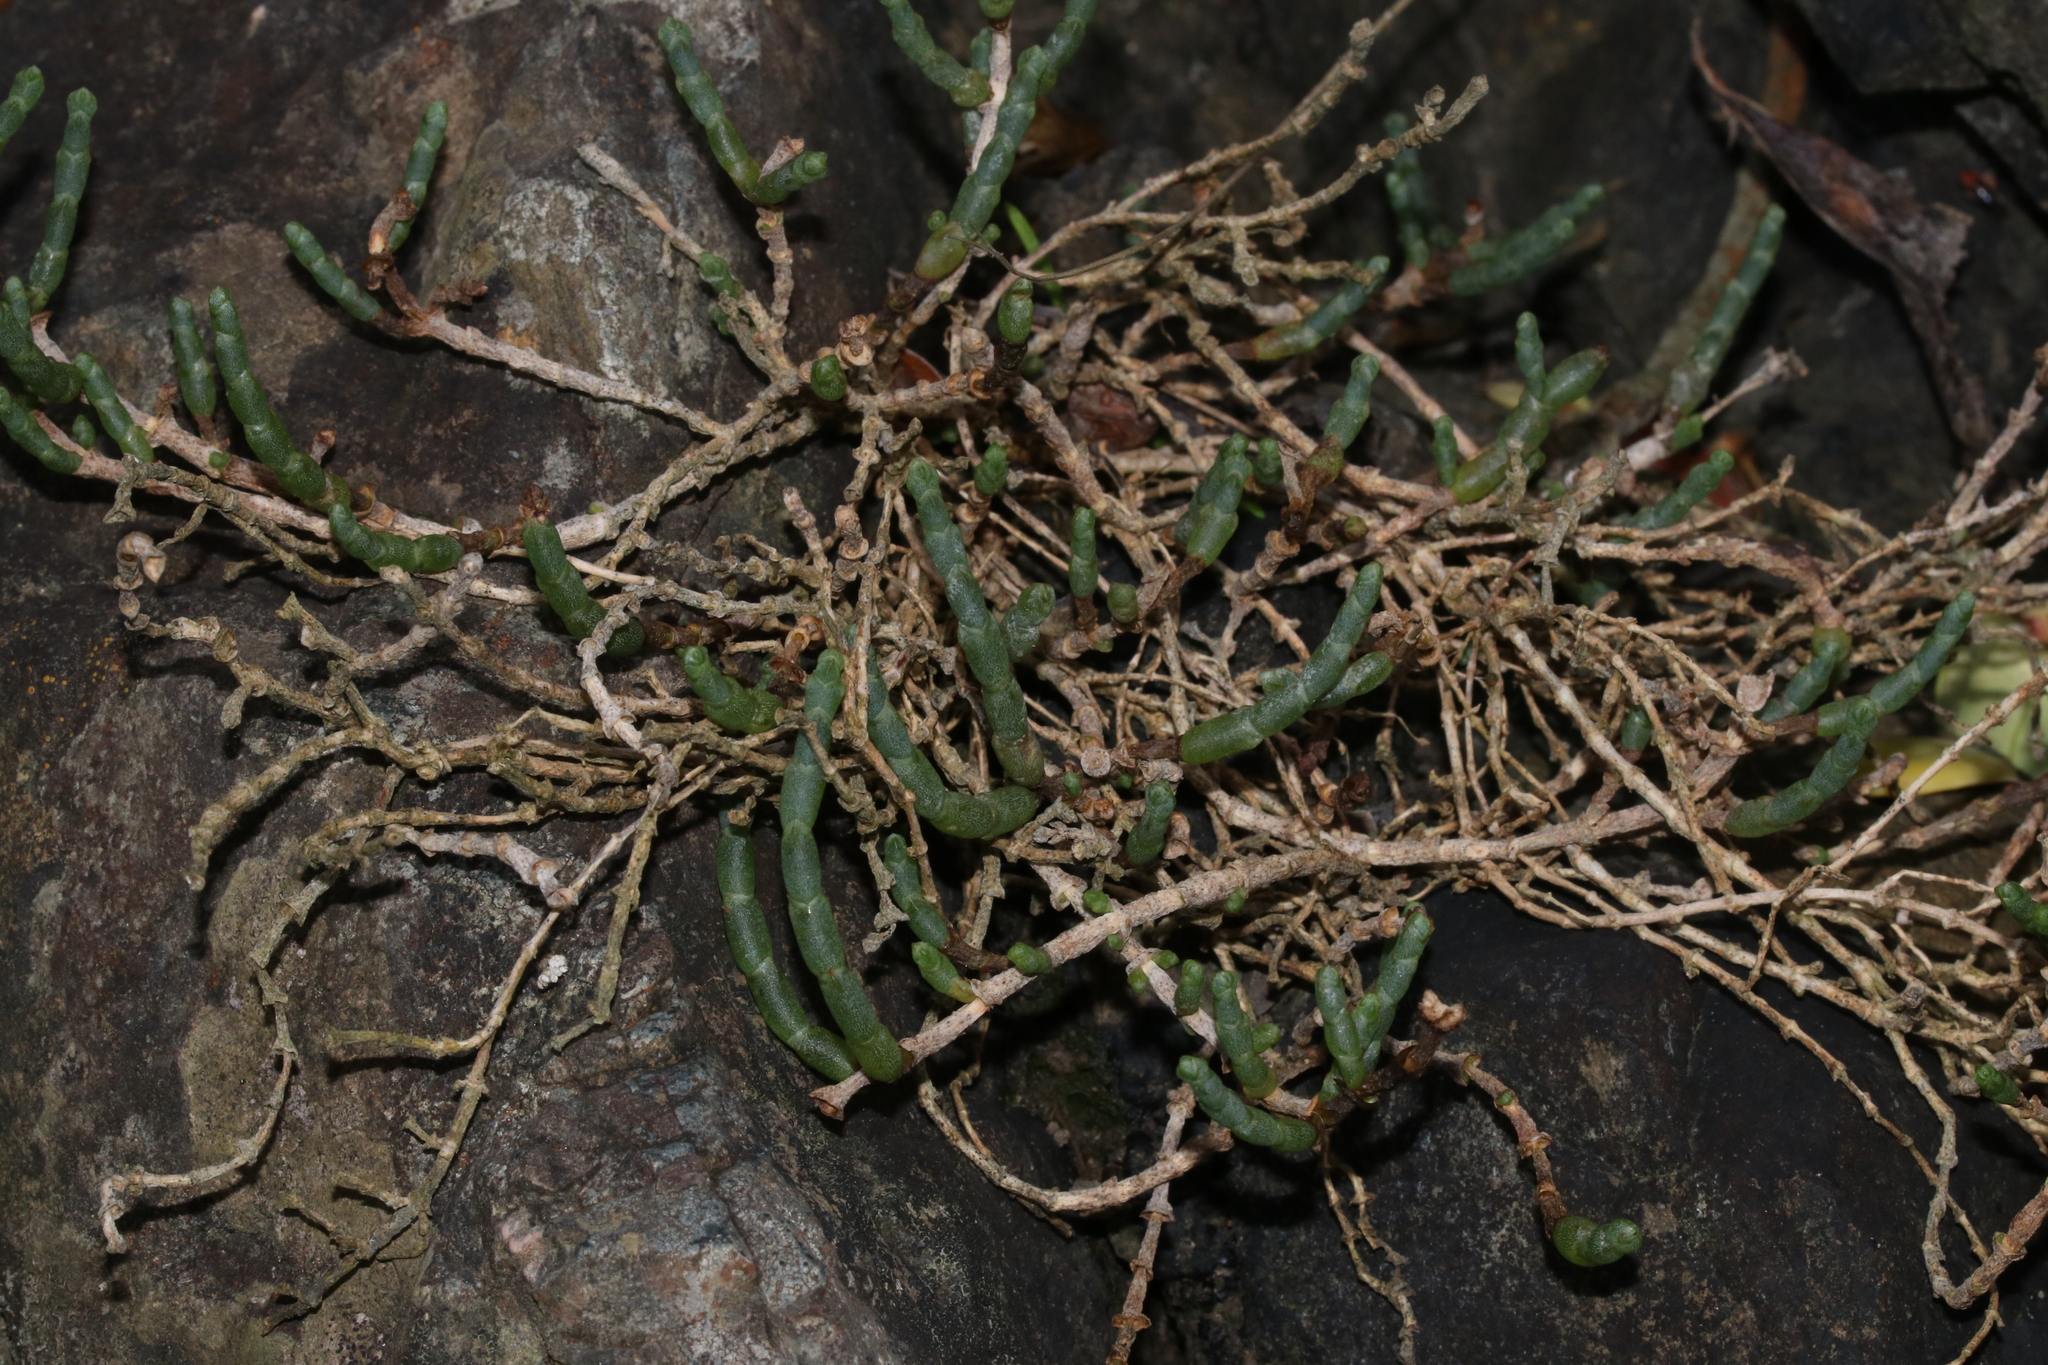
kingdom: Plantae
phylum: Tracheophyta
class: Magnoliopsida
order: Caryophyllales
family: Amaranthaceae
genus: Salicornia
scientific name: Salicornia quinqueflora
